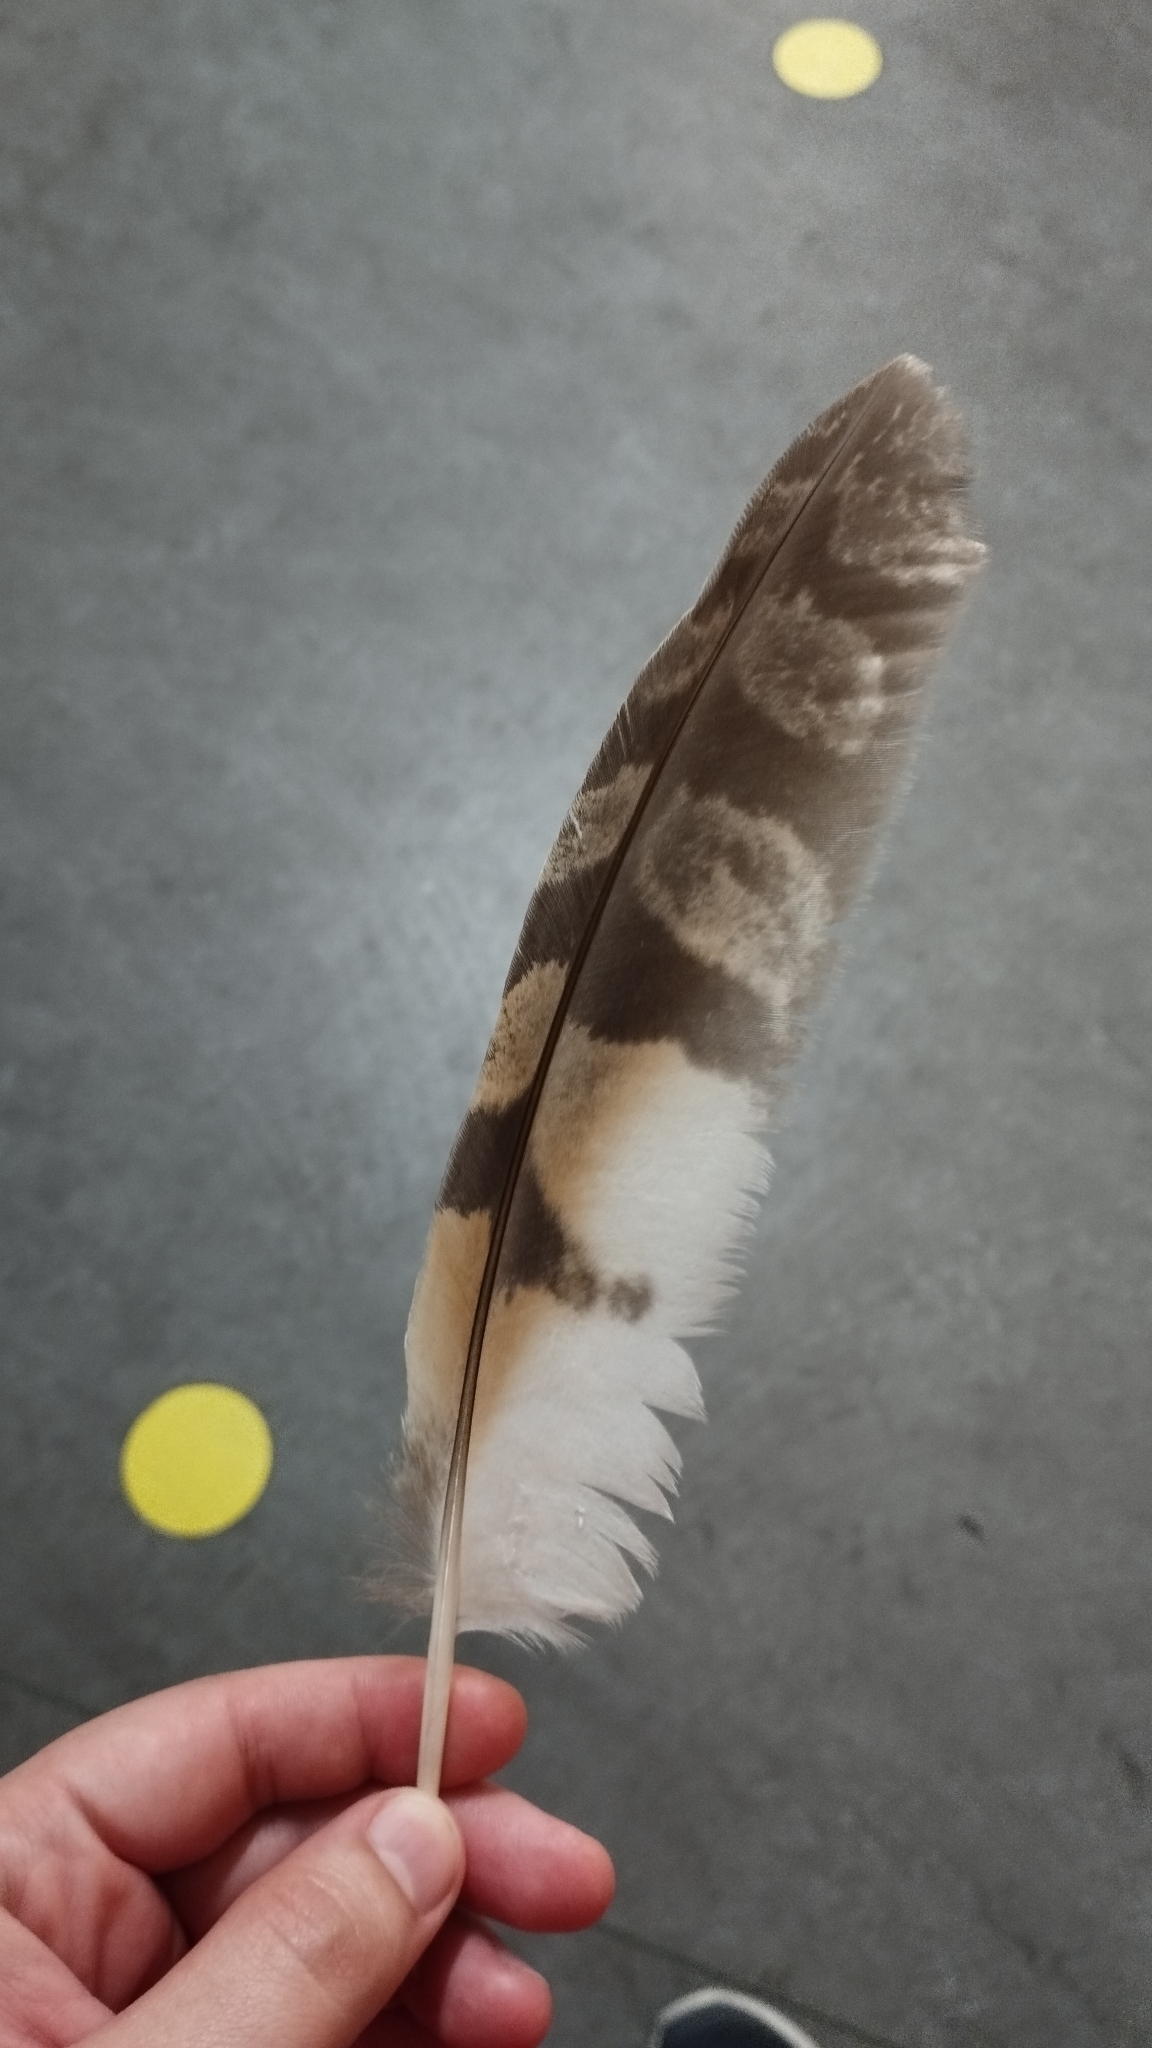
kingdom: Animalia
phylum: Chordata
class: Aves
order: Strigiformes
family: Strigidae
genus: Asio
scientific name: Asio otus
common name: Long-eared owl
